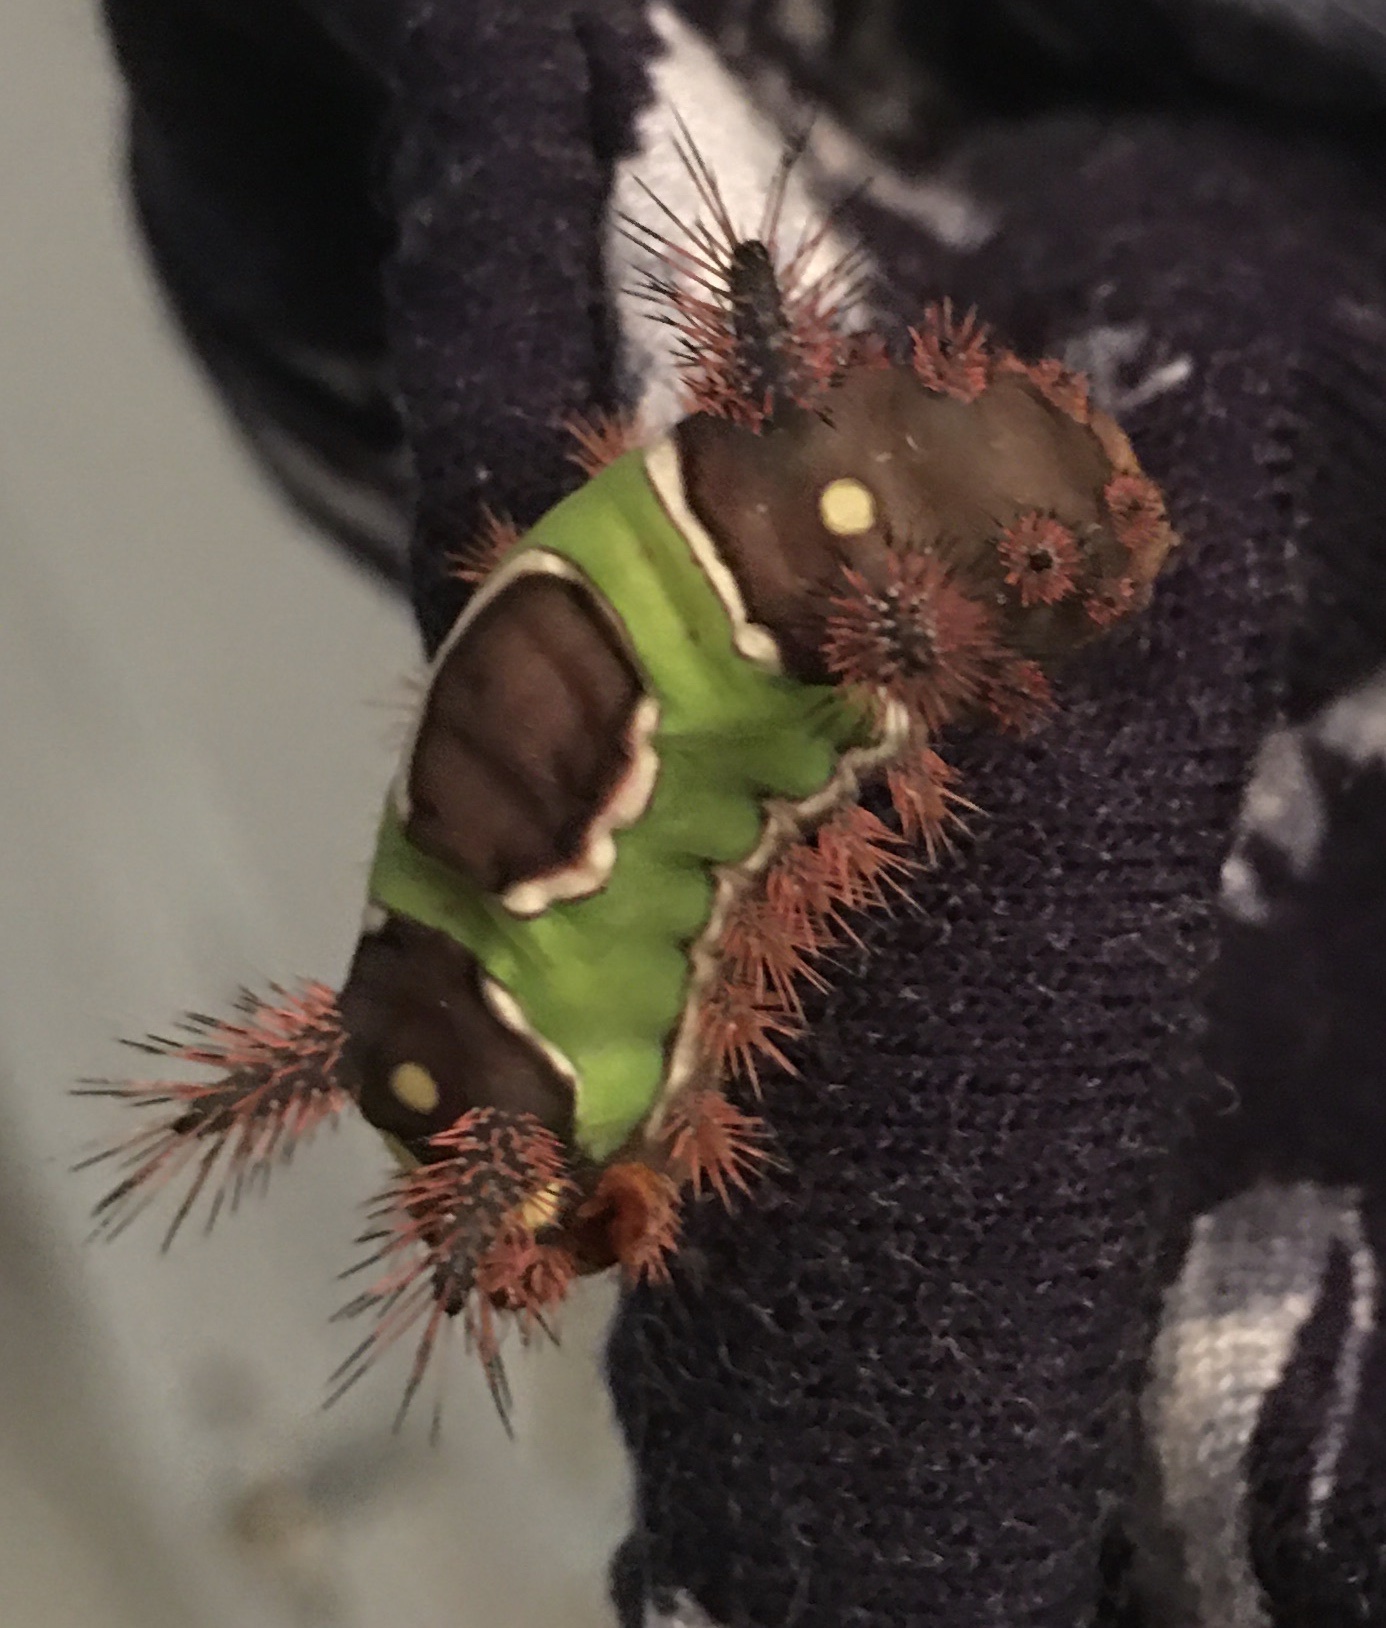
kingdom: Animalia
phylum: Arthropoda
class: Insecta
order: Lepidoptera
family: Limacodidae
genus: Acharia
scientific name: Acharia stimulea
